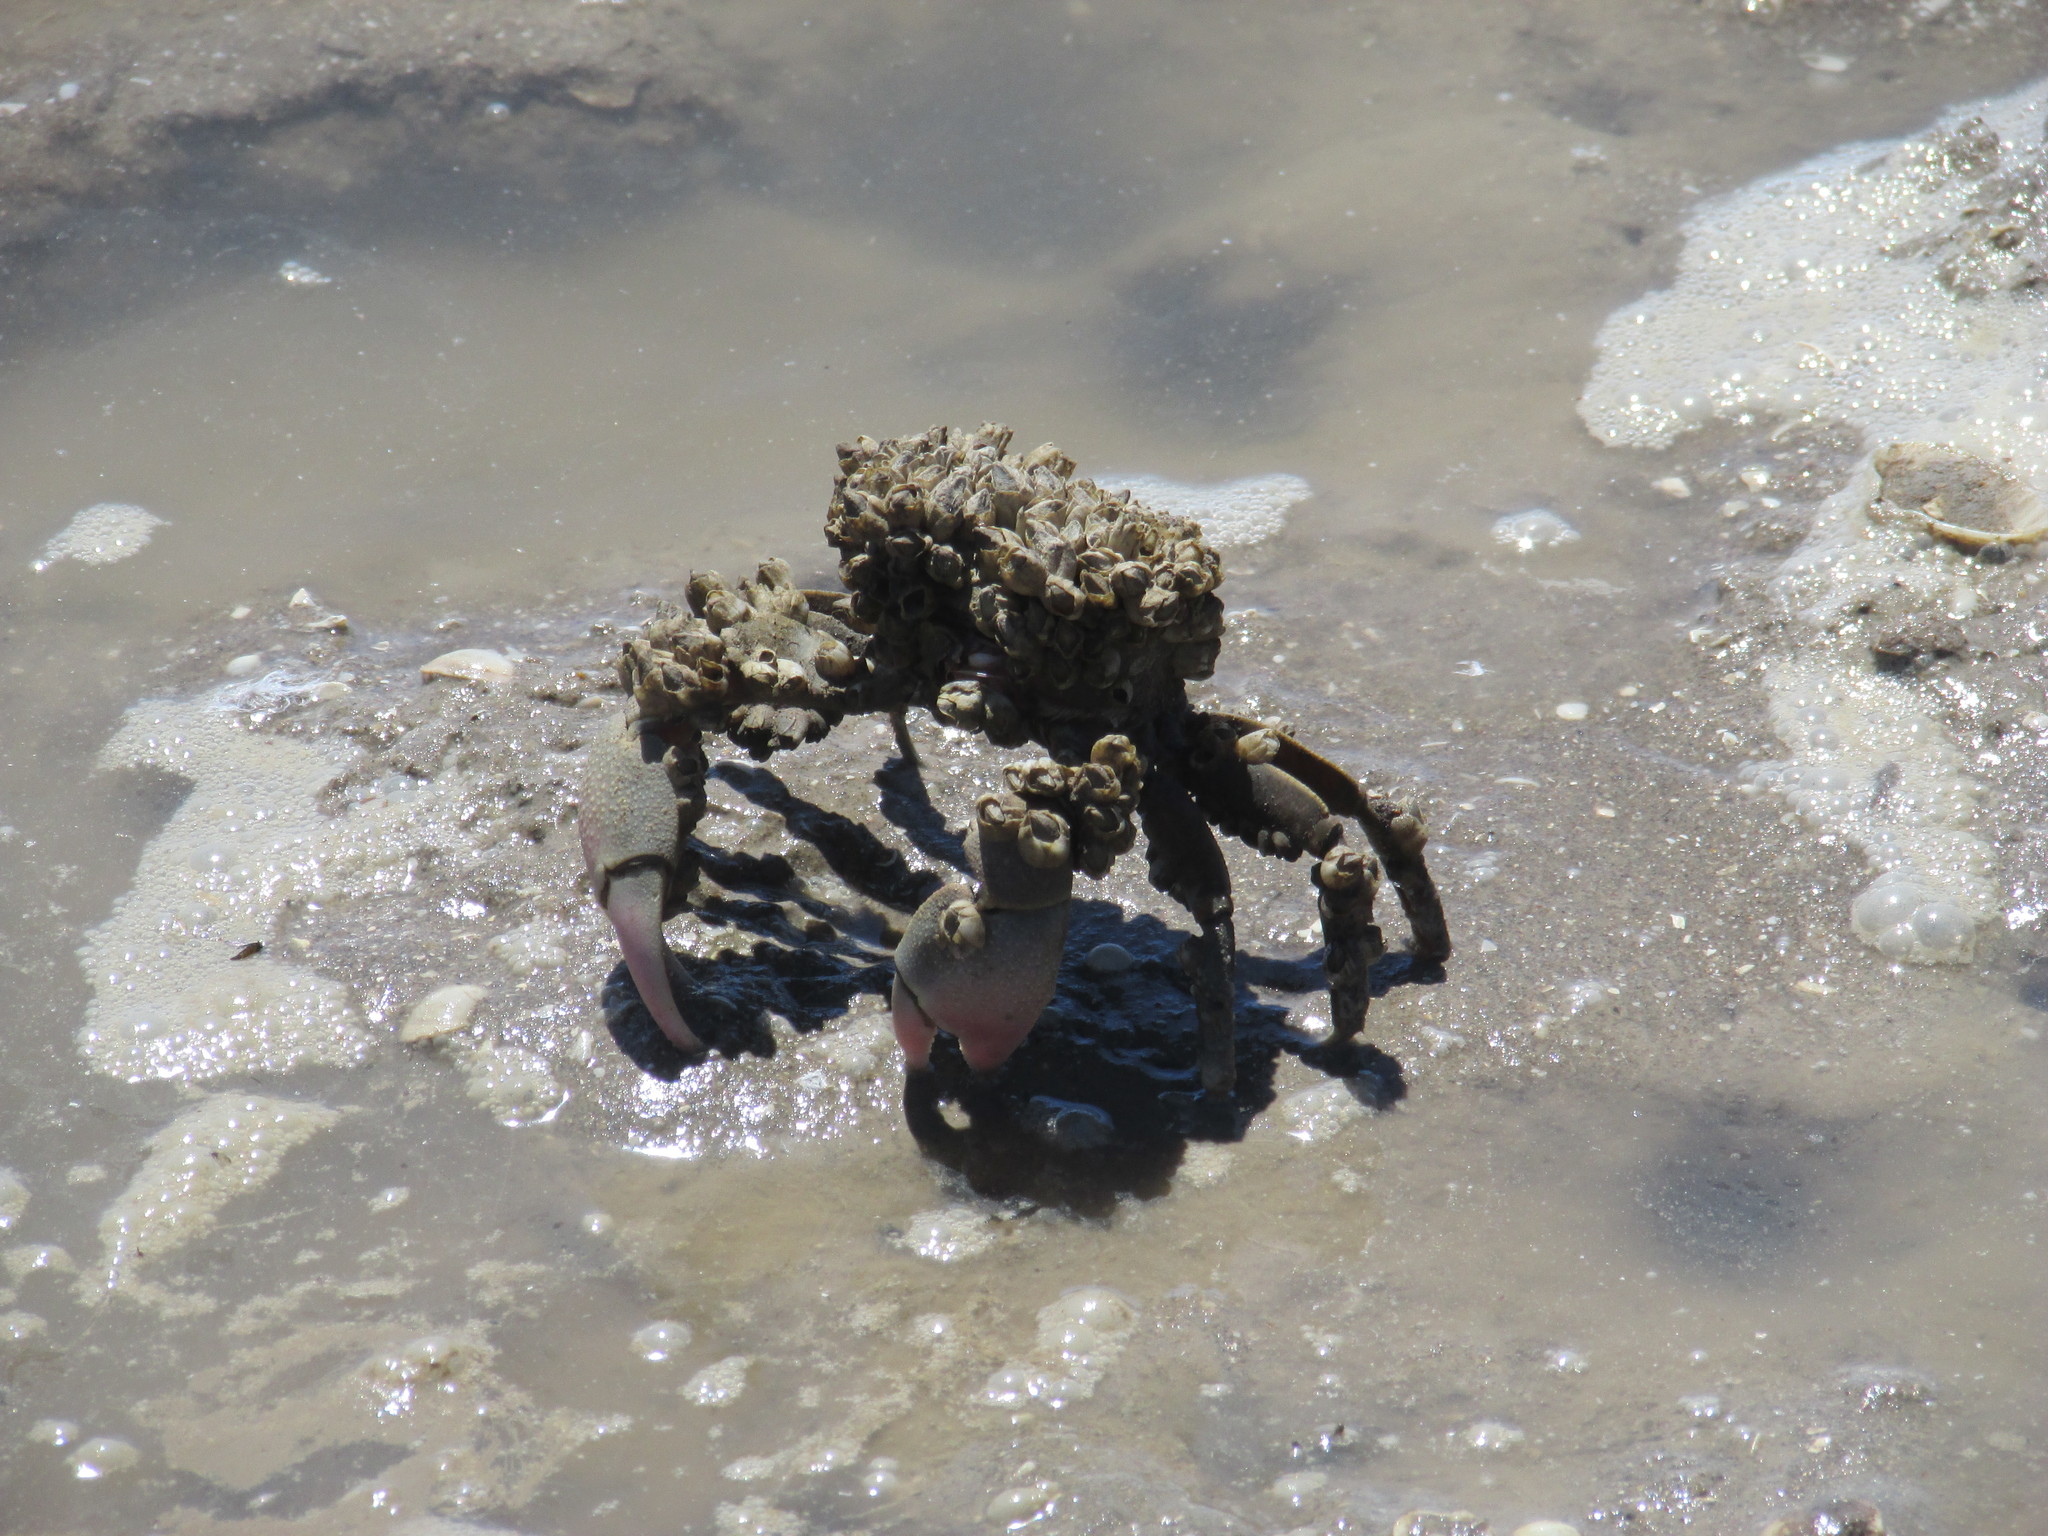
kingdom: Animalia
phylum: Arthropoda
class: Malacostraca
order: Decapoda
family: Varunidae
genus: Neohelice
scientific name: Neohelice granulata
